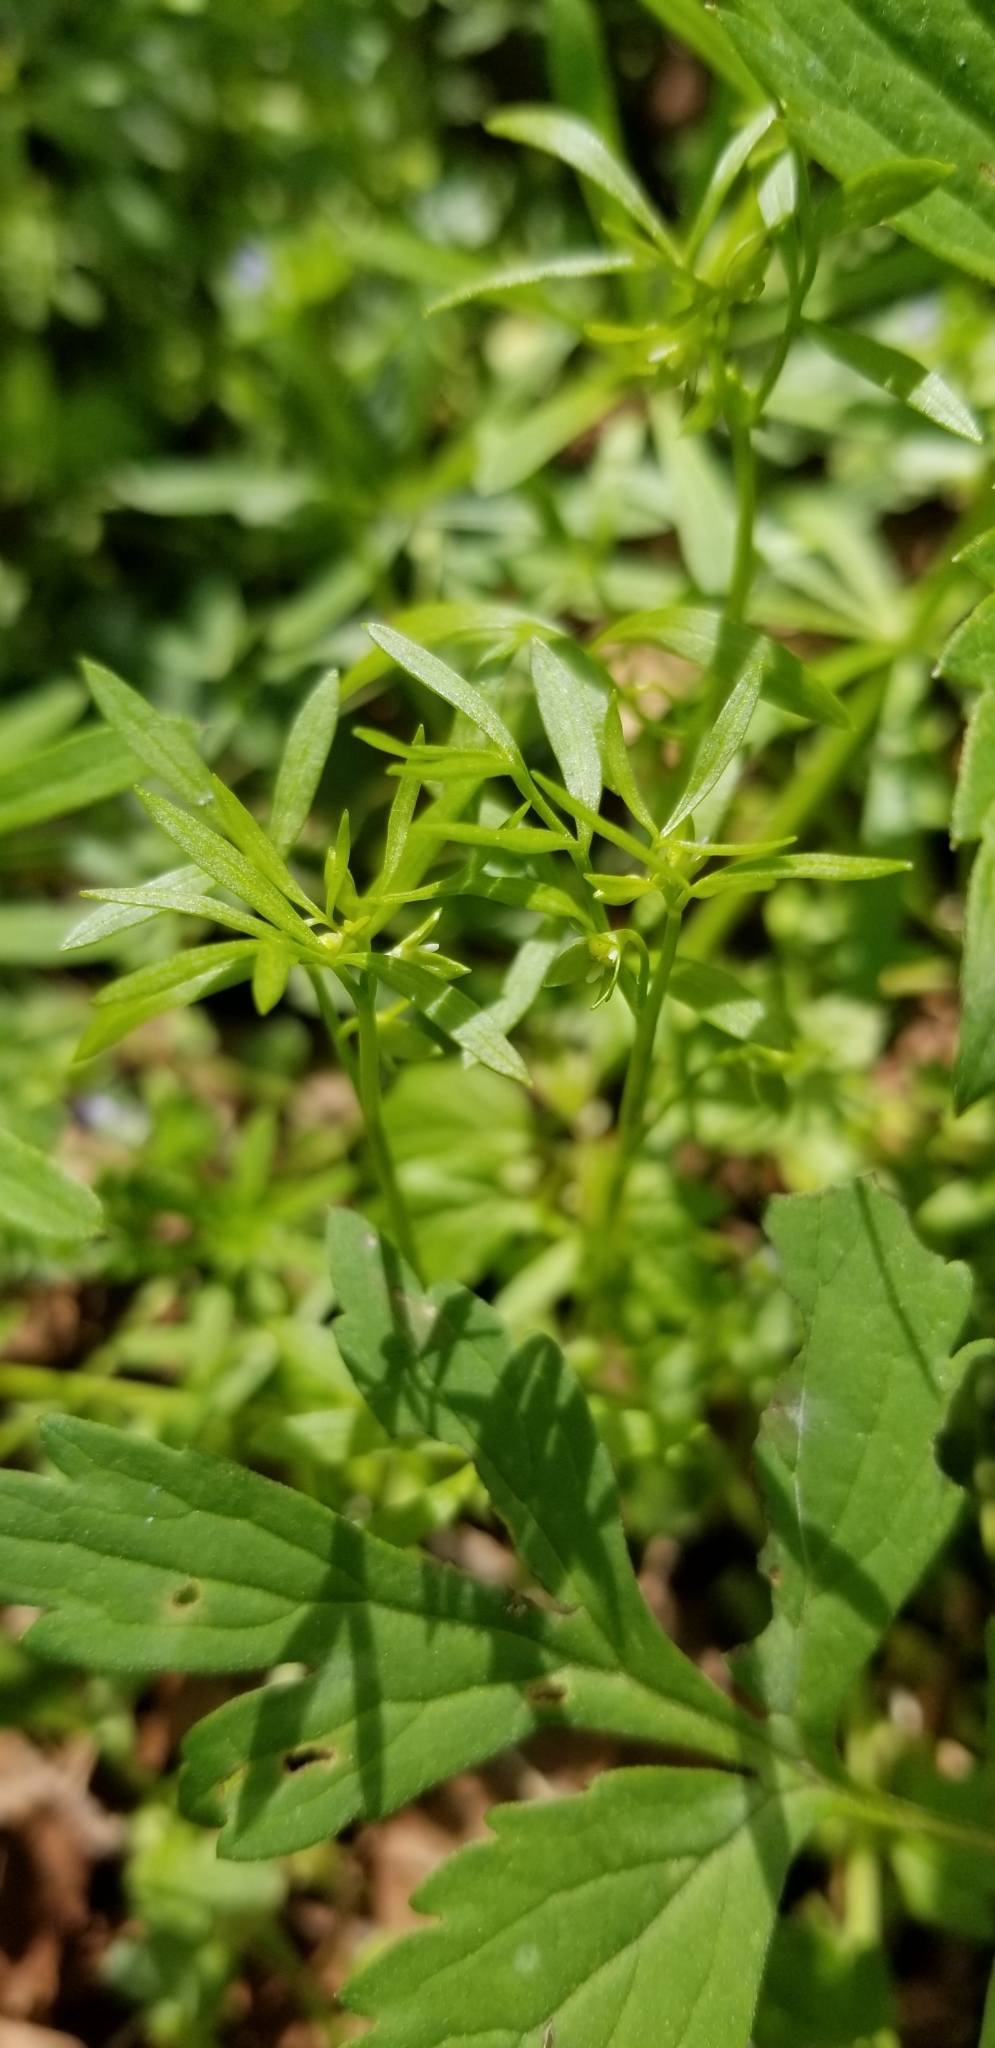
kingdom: Plantae
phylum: Tracheophyta
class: Magnoliopsida
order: Brassicales
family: Limnanthaceae
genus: Floerkea
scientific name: Floerkea proserpinacoides
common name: False mermaid
